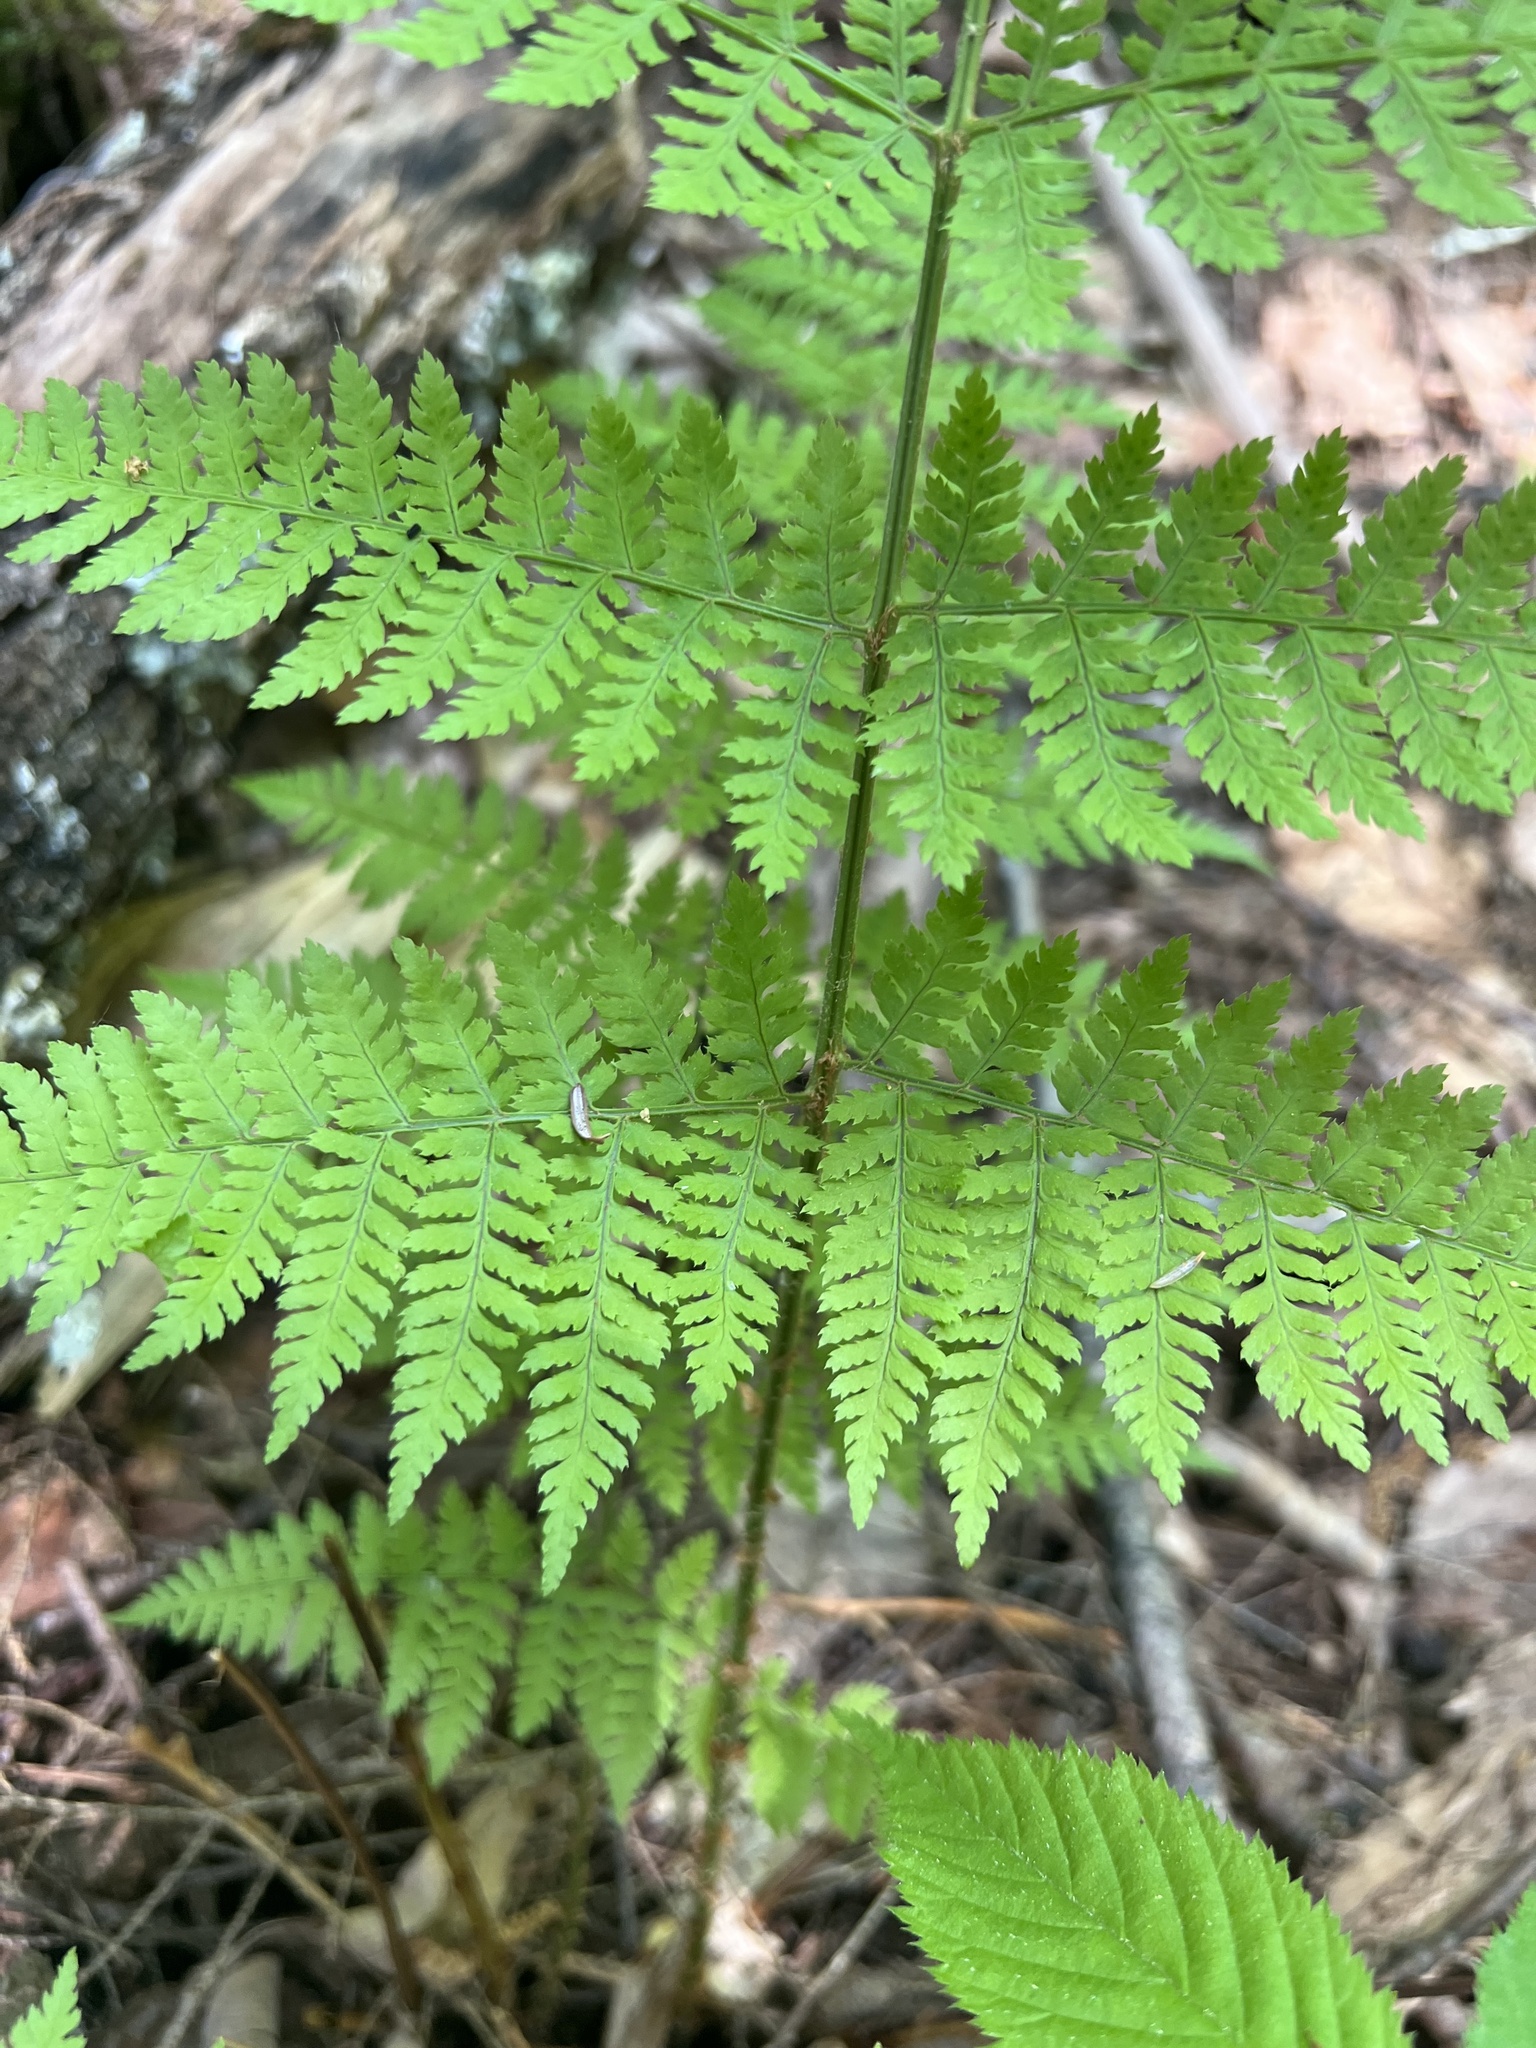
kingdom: Plantae
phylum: Tracheophyta
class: Polypodiopsida
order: Polypodiales
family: Dryopteridaceae
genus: Dryopteris
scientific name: Dryopteris intermedia
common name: Evergreen wood fern
